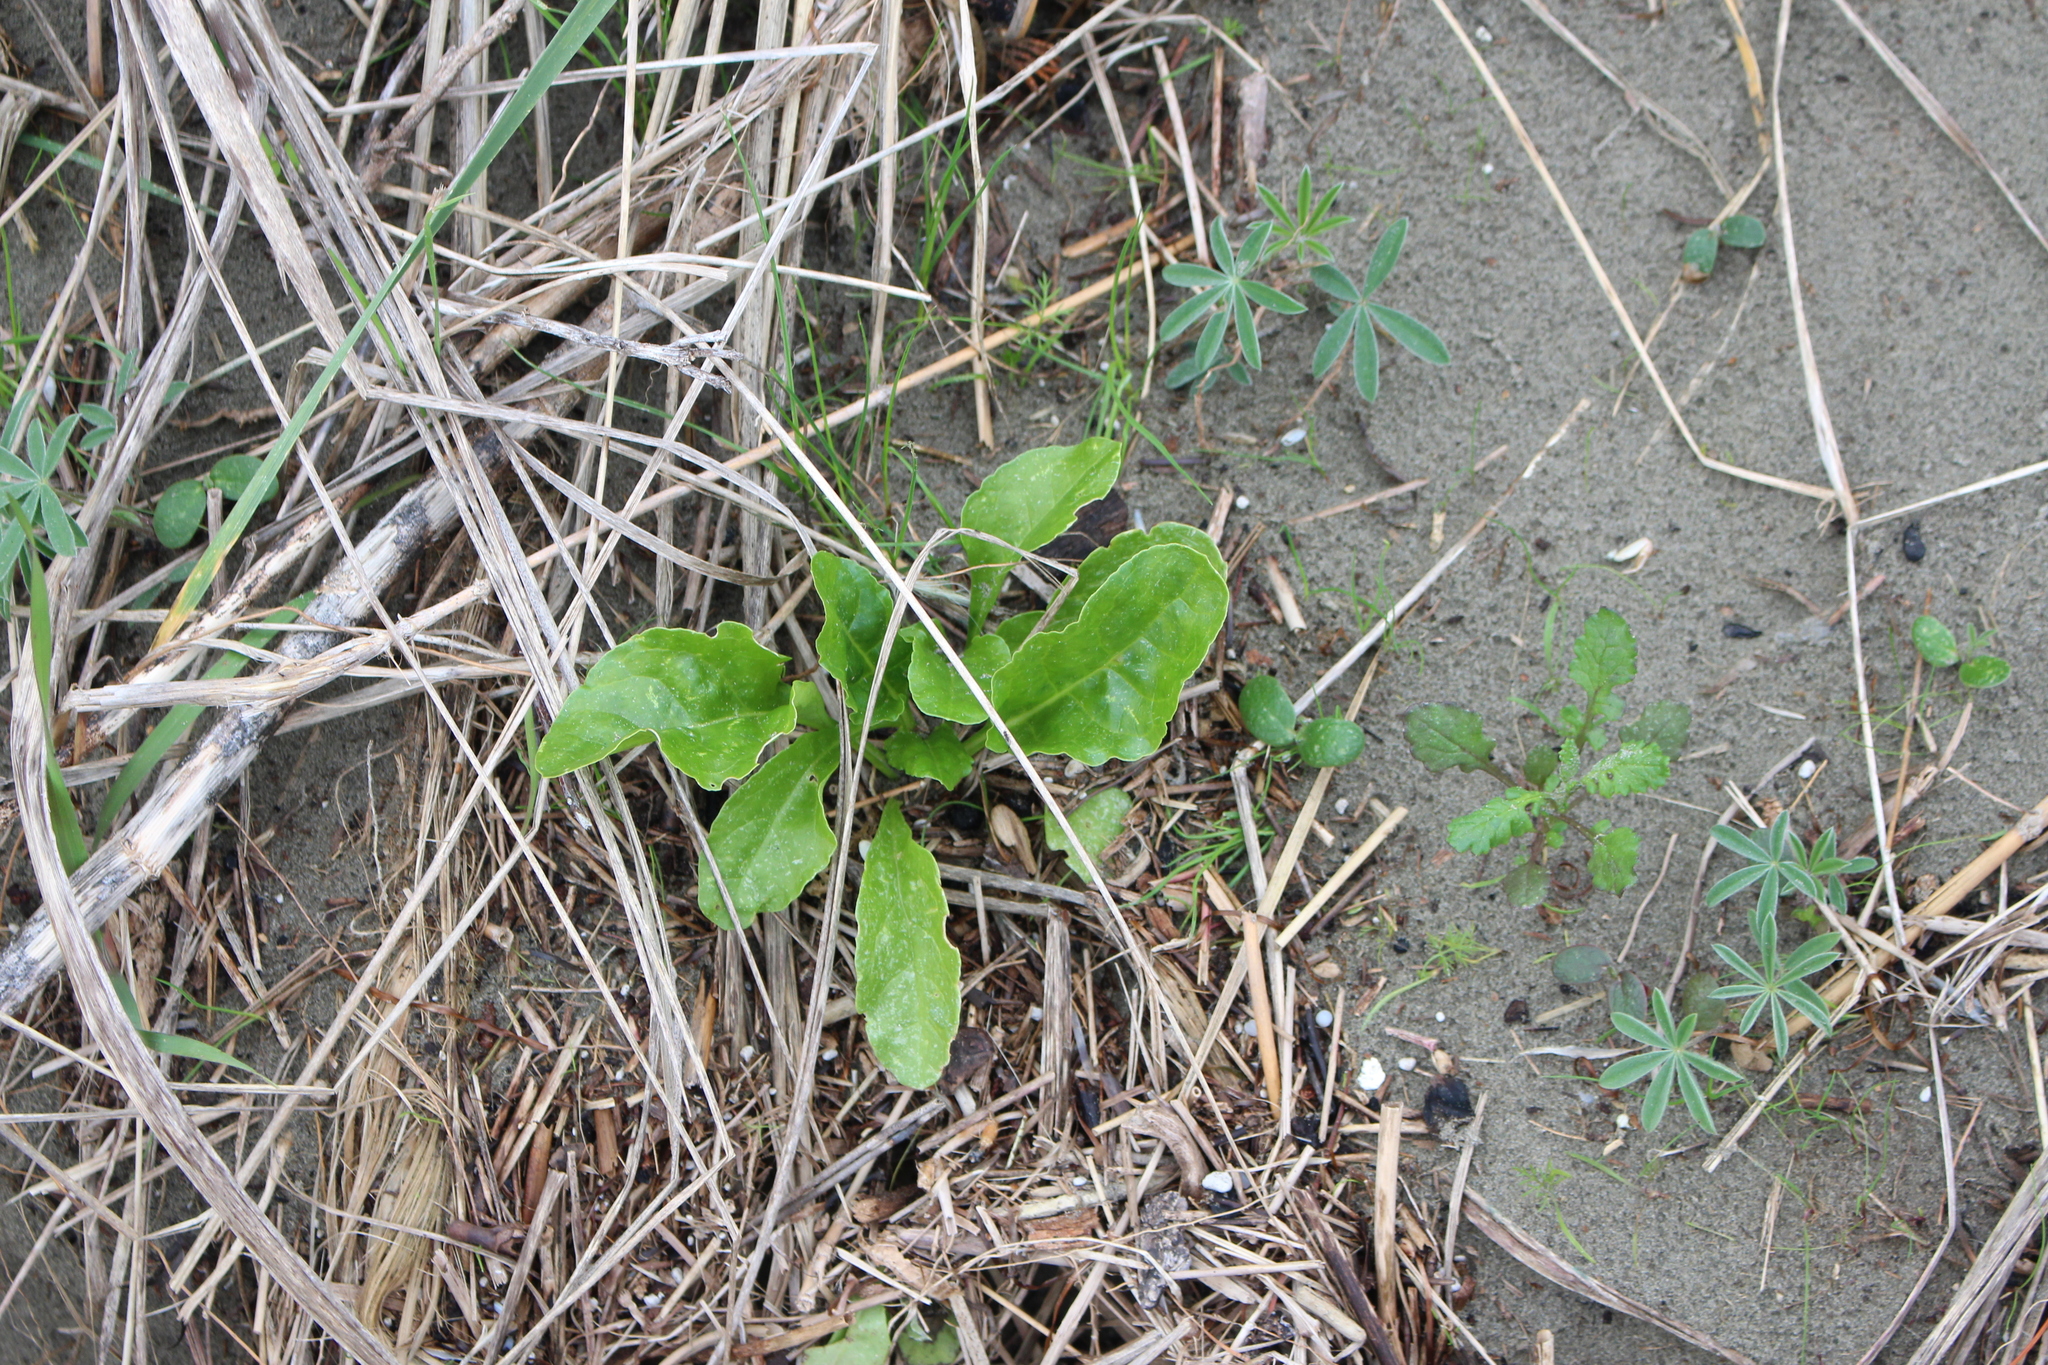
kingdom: Plantae
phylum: Tracheophyta
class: Magnoliopsida
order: Caryophyllales
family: Amaranthaceae
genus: Beta
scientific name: Beta vulgaris
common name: Beet
